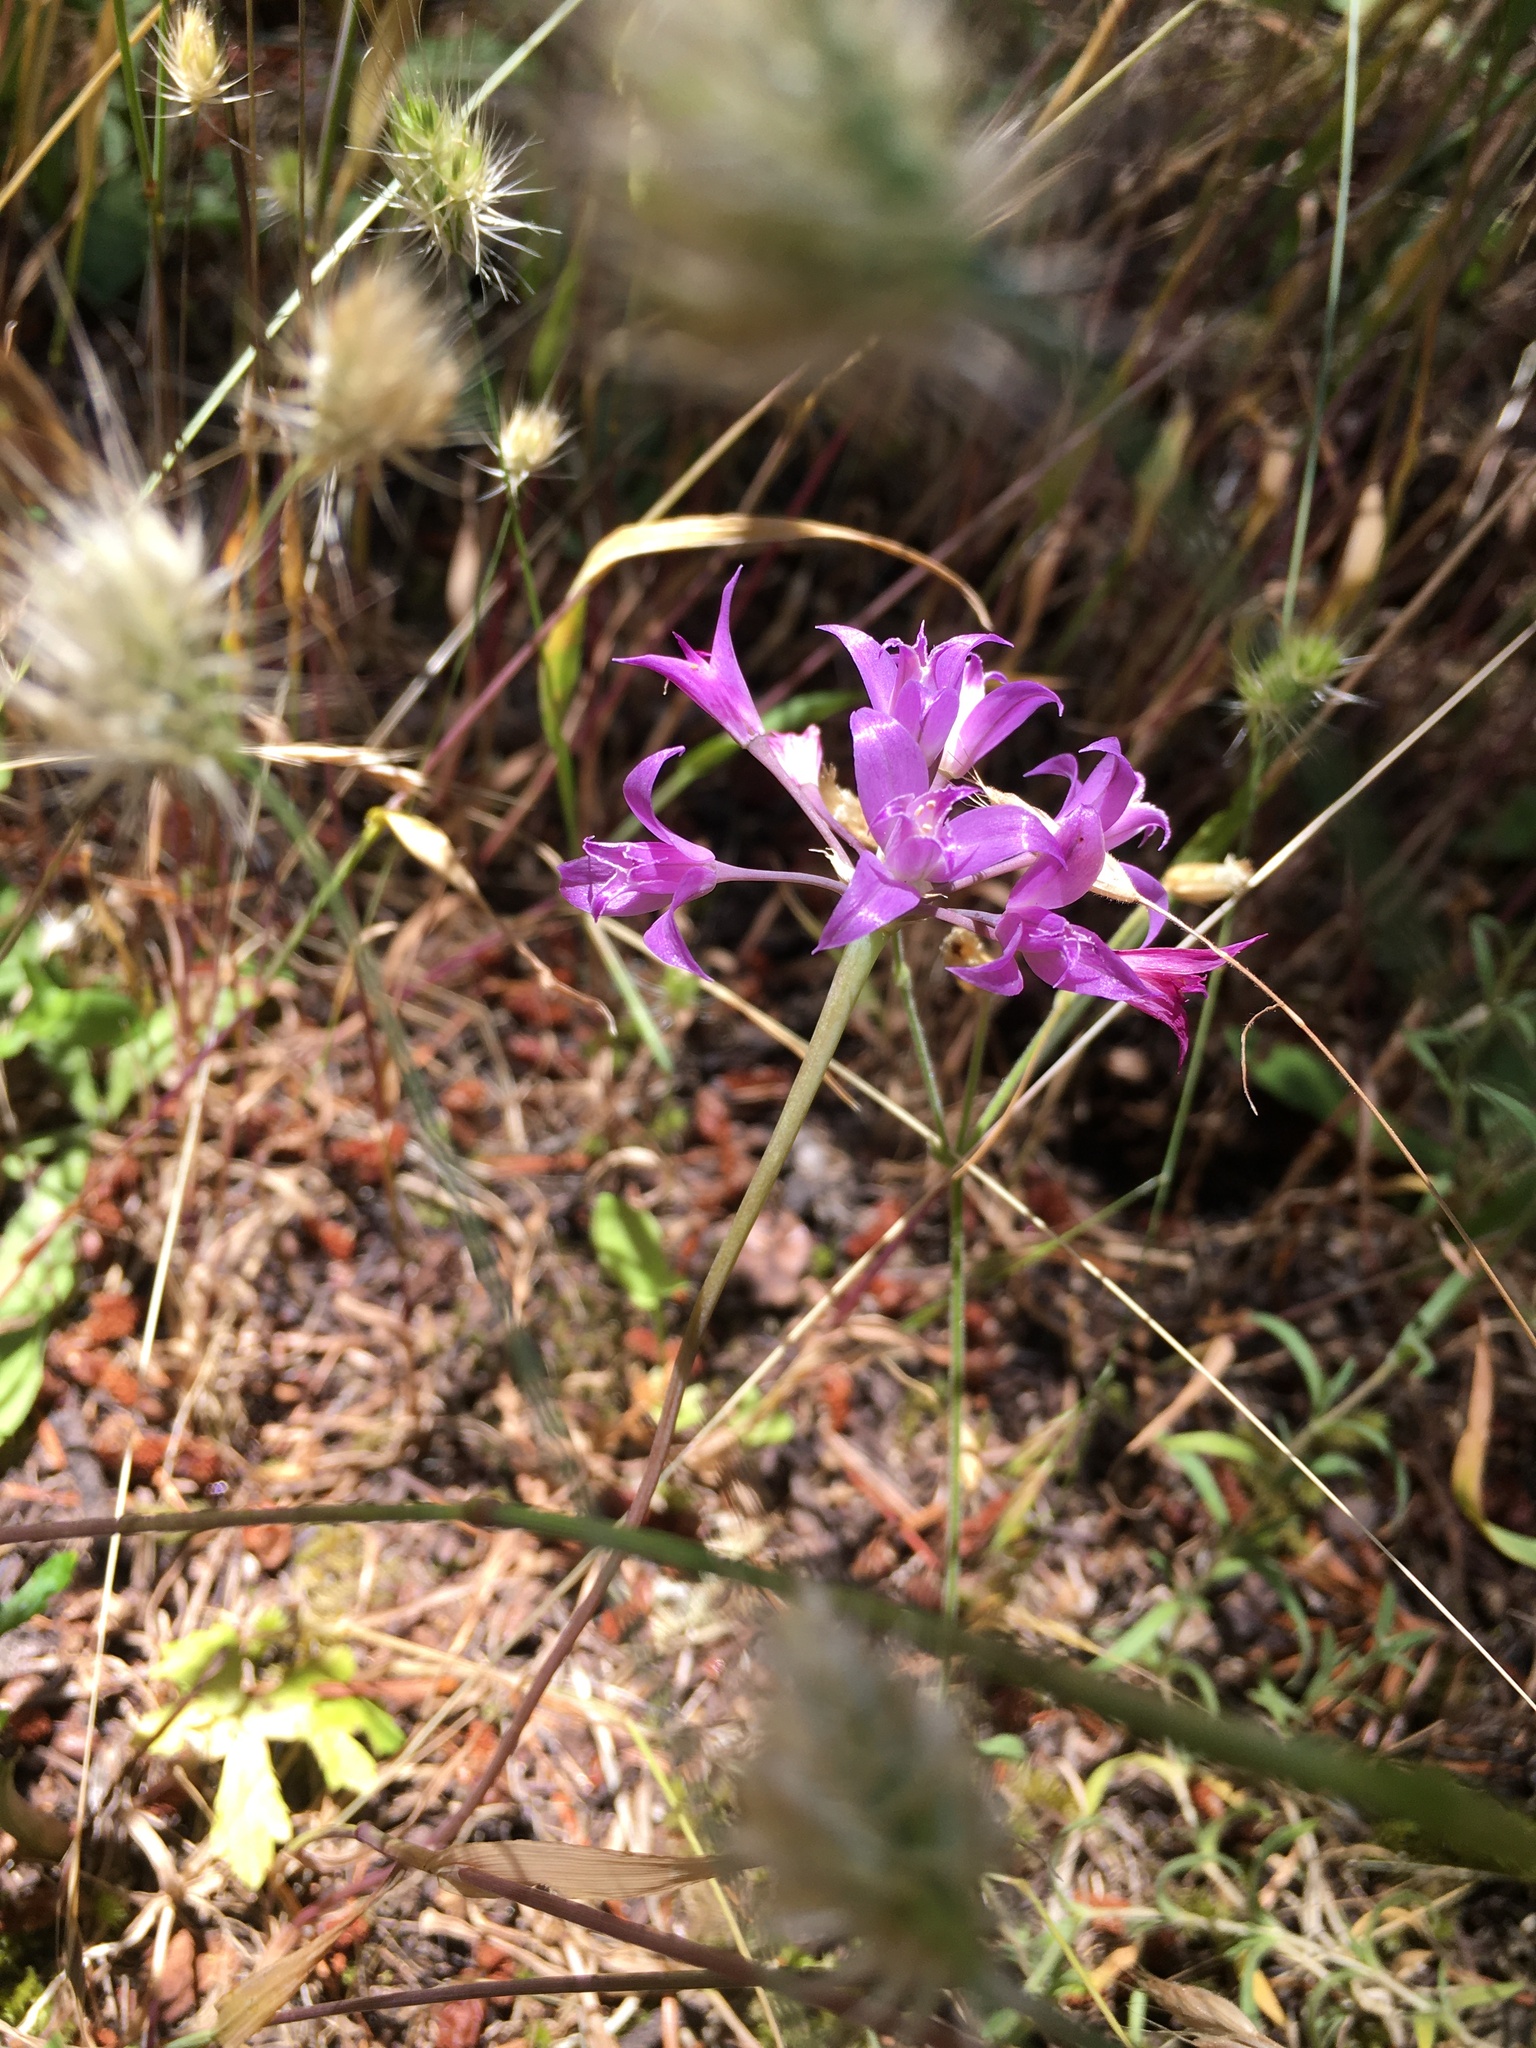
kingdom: Plantae
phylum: Tracheophyta
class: Liliopsida
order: Asparagales
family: Amaryllidaceae
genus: Allium
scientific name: Allium acuminatum
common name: Hooker's onion
